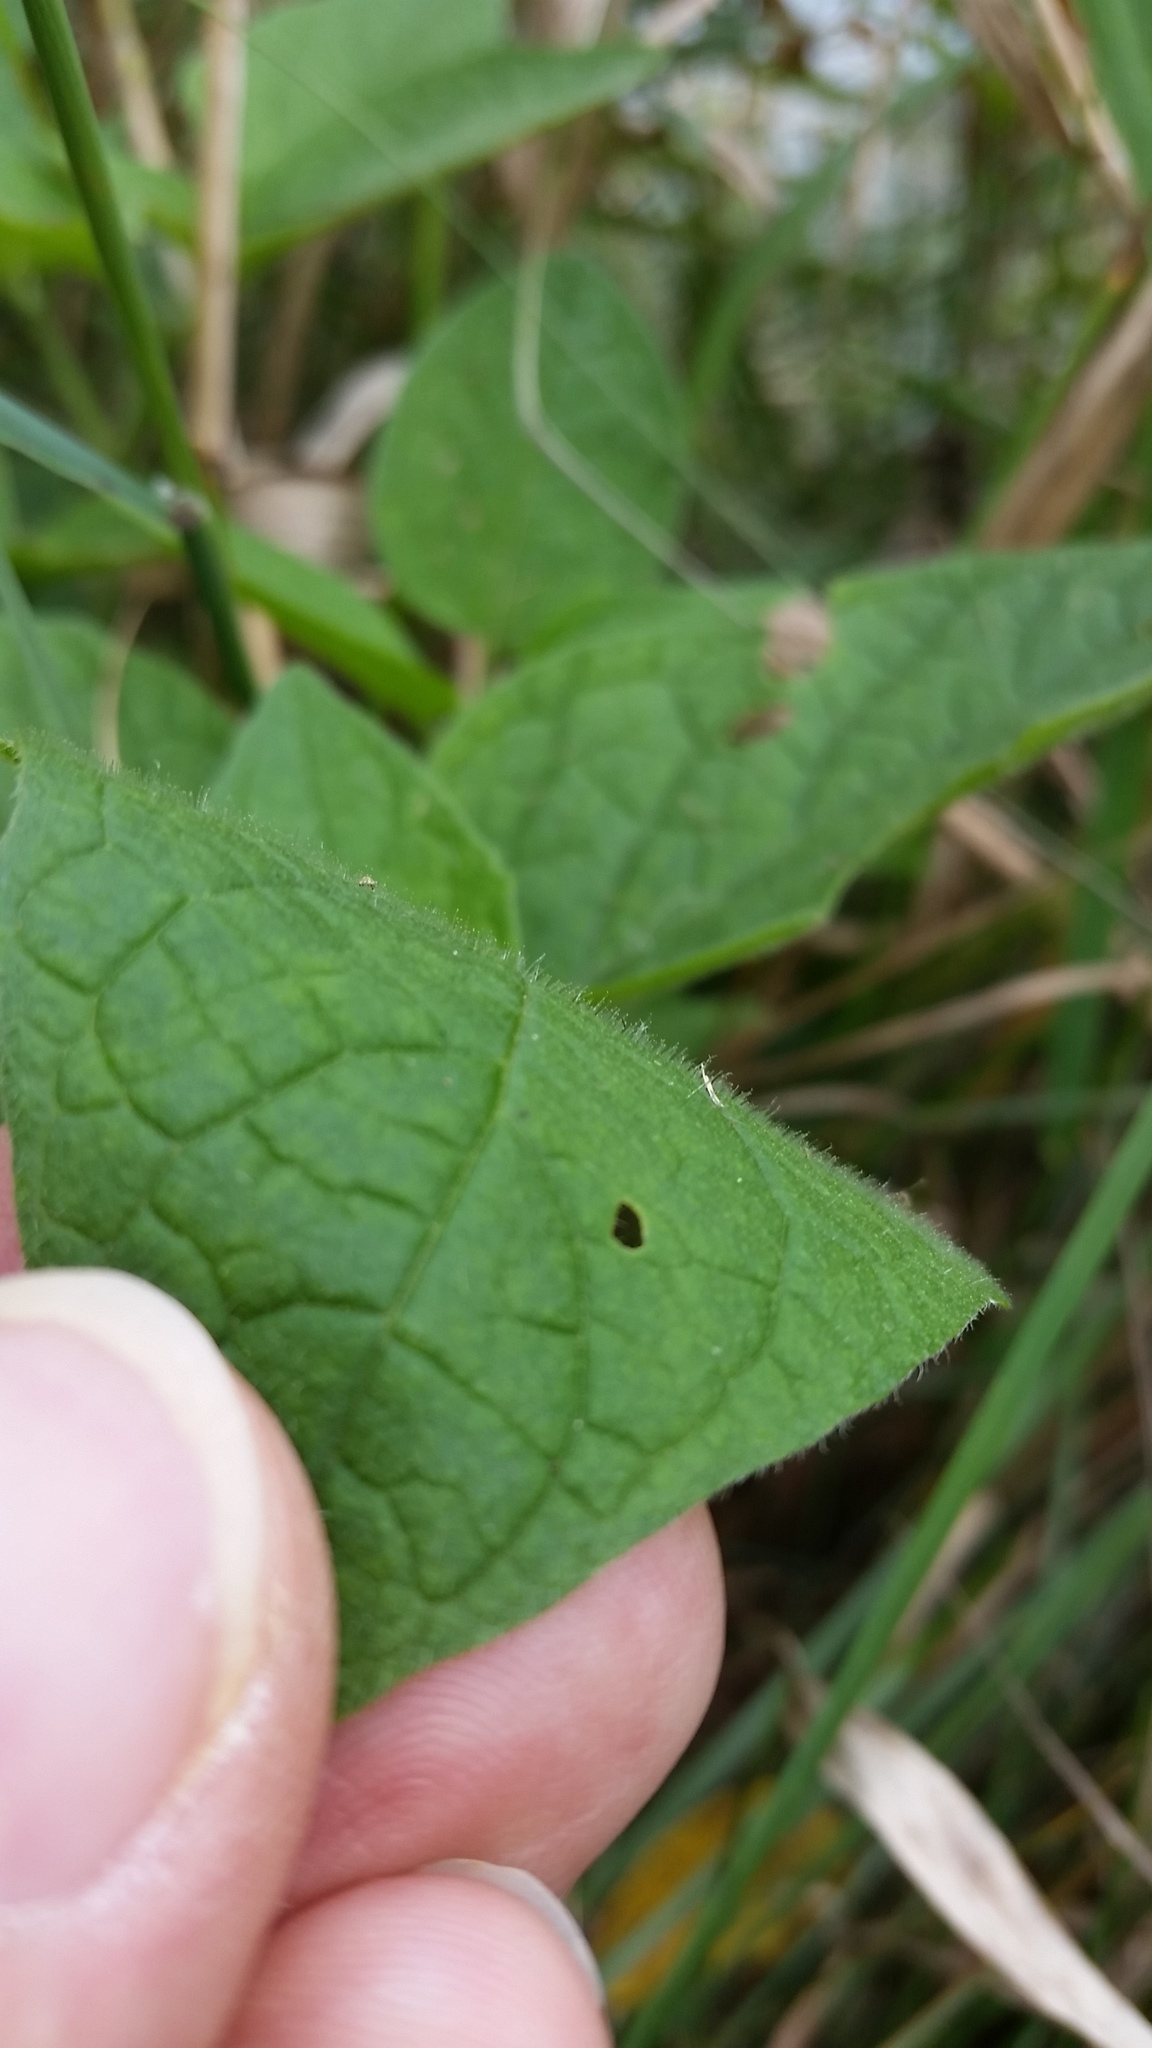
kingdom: Plantae
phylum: Tracheophyta
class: Magnoliopsida
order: Solanales
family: Solanaceae
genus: Physalis
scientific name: Physalis heterophylla
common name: Clammy ground-cherry
